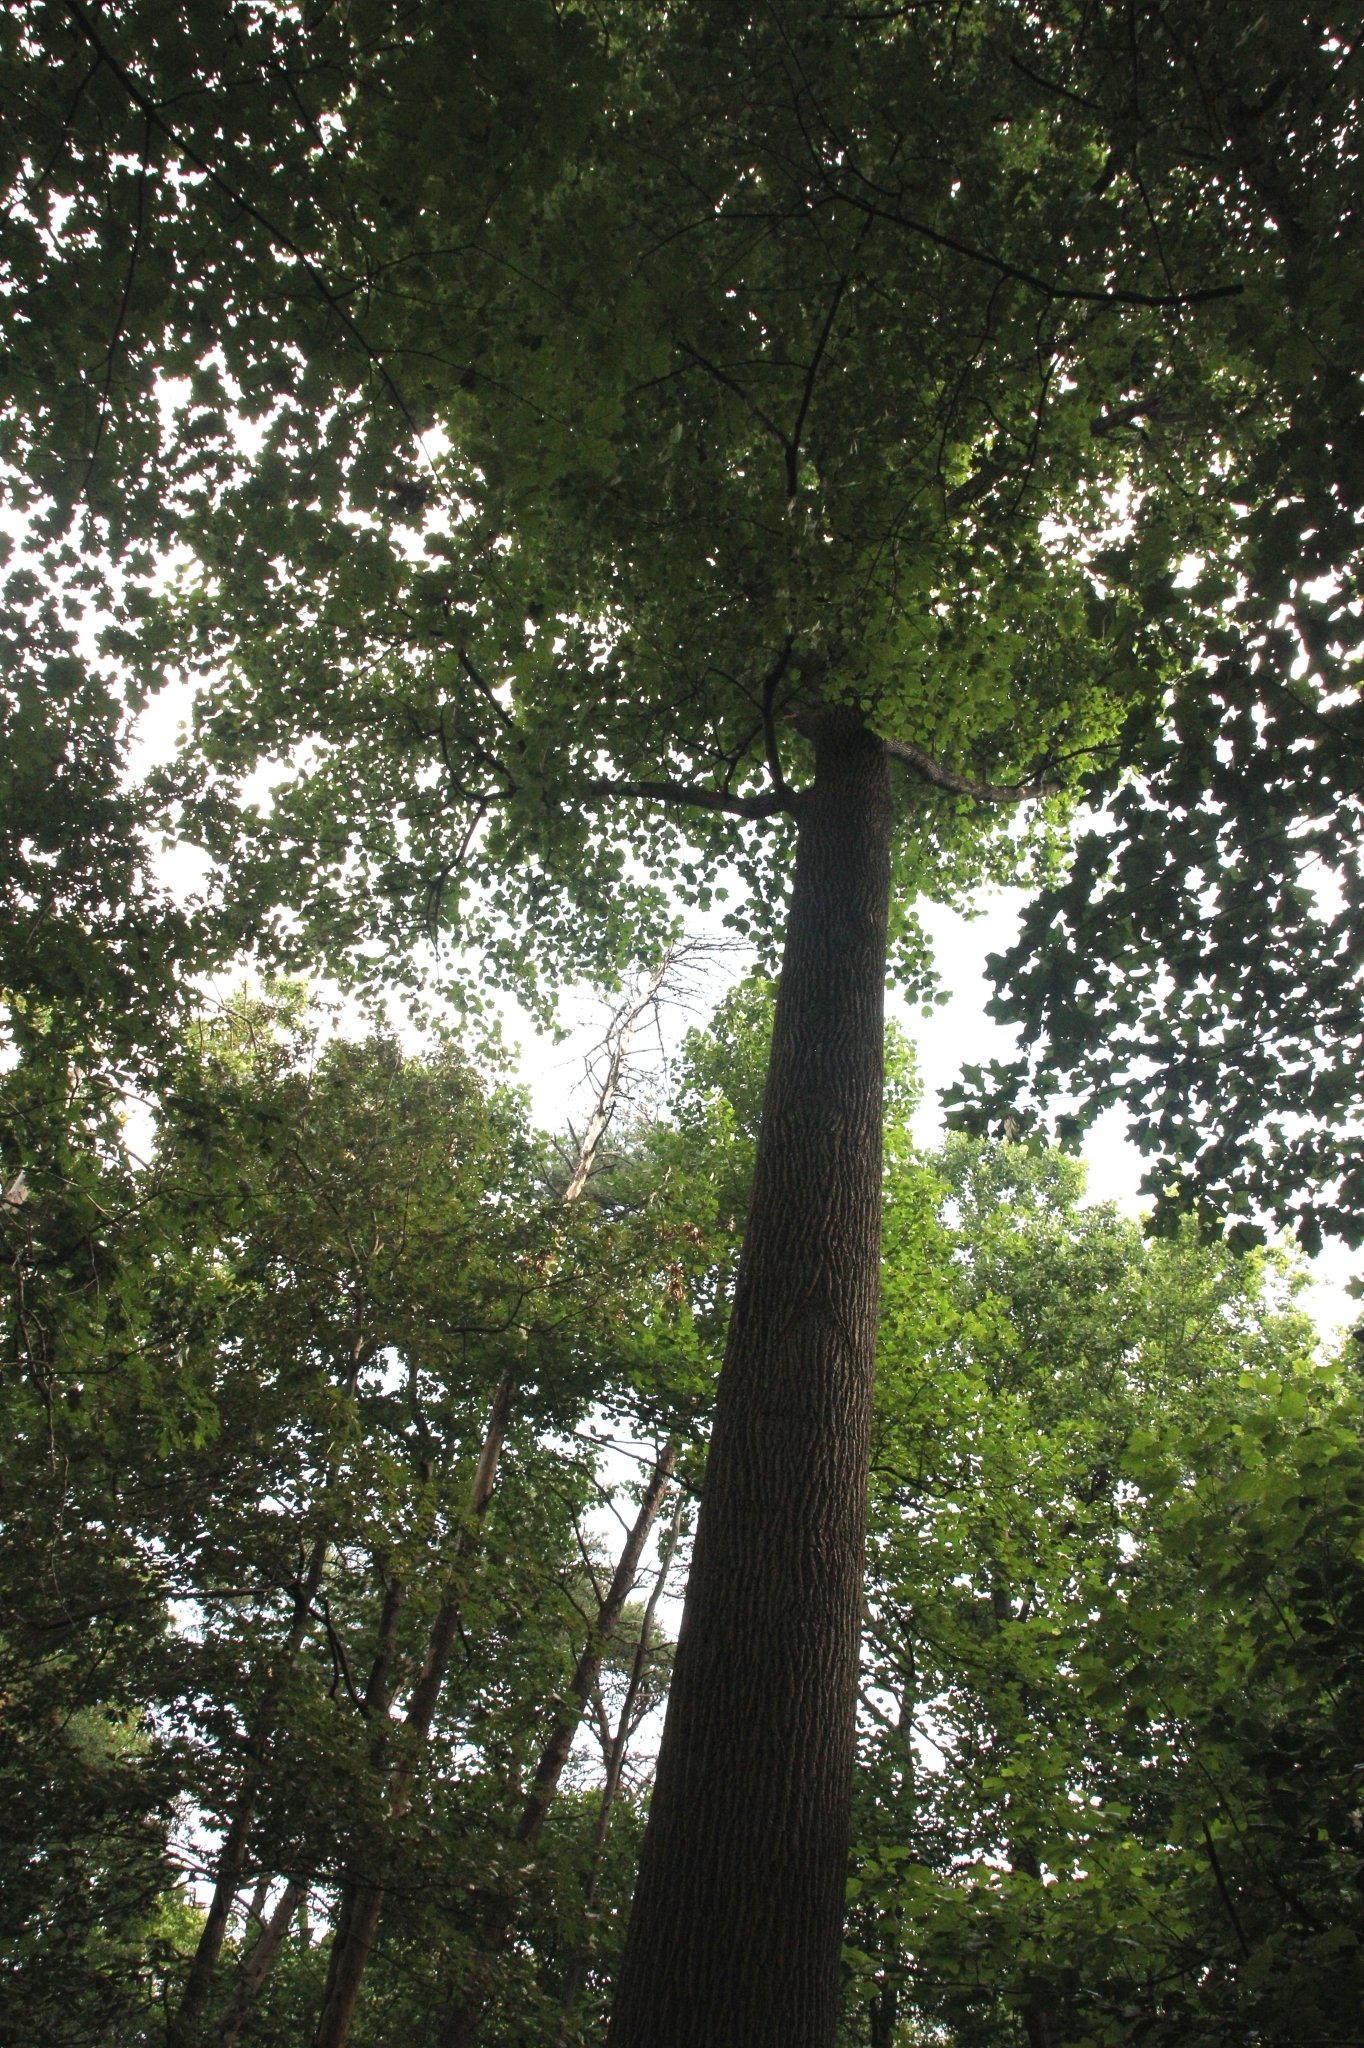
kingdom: Plantae
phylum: Tracheophyta
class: Magnoliopsida
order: Magnoliales
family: Magnoliaceae
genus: Liriodendron
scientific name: Liriodendron tulipifera
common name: Tulip tree
